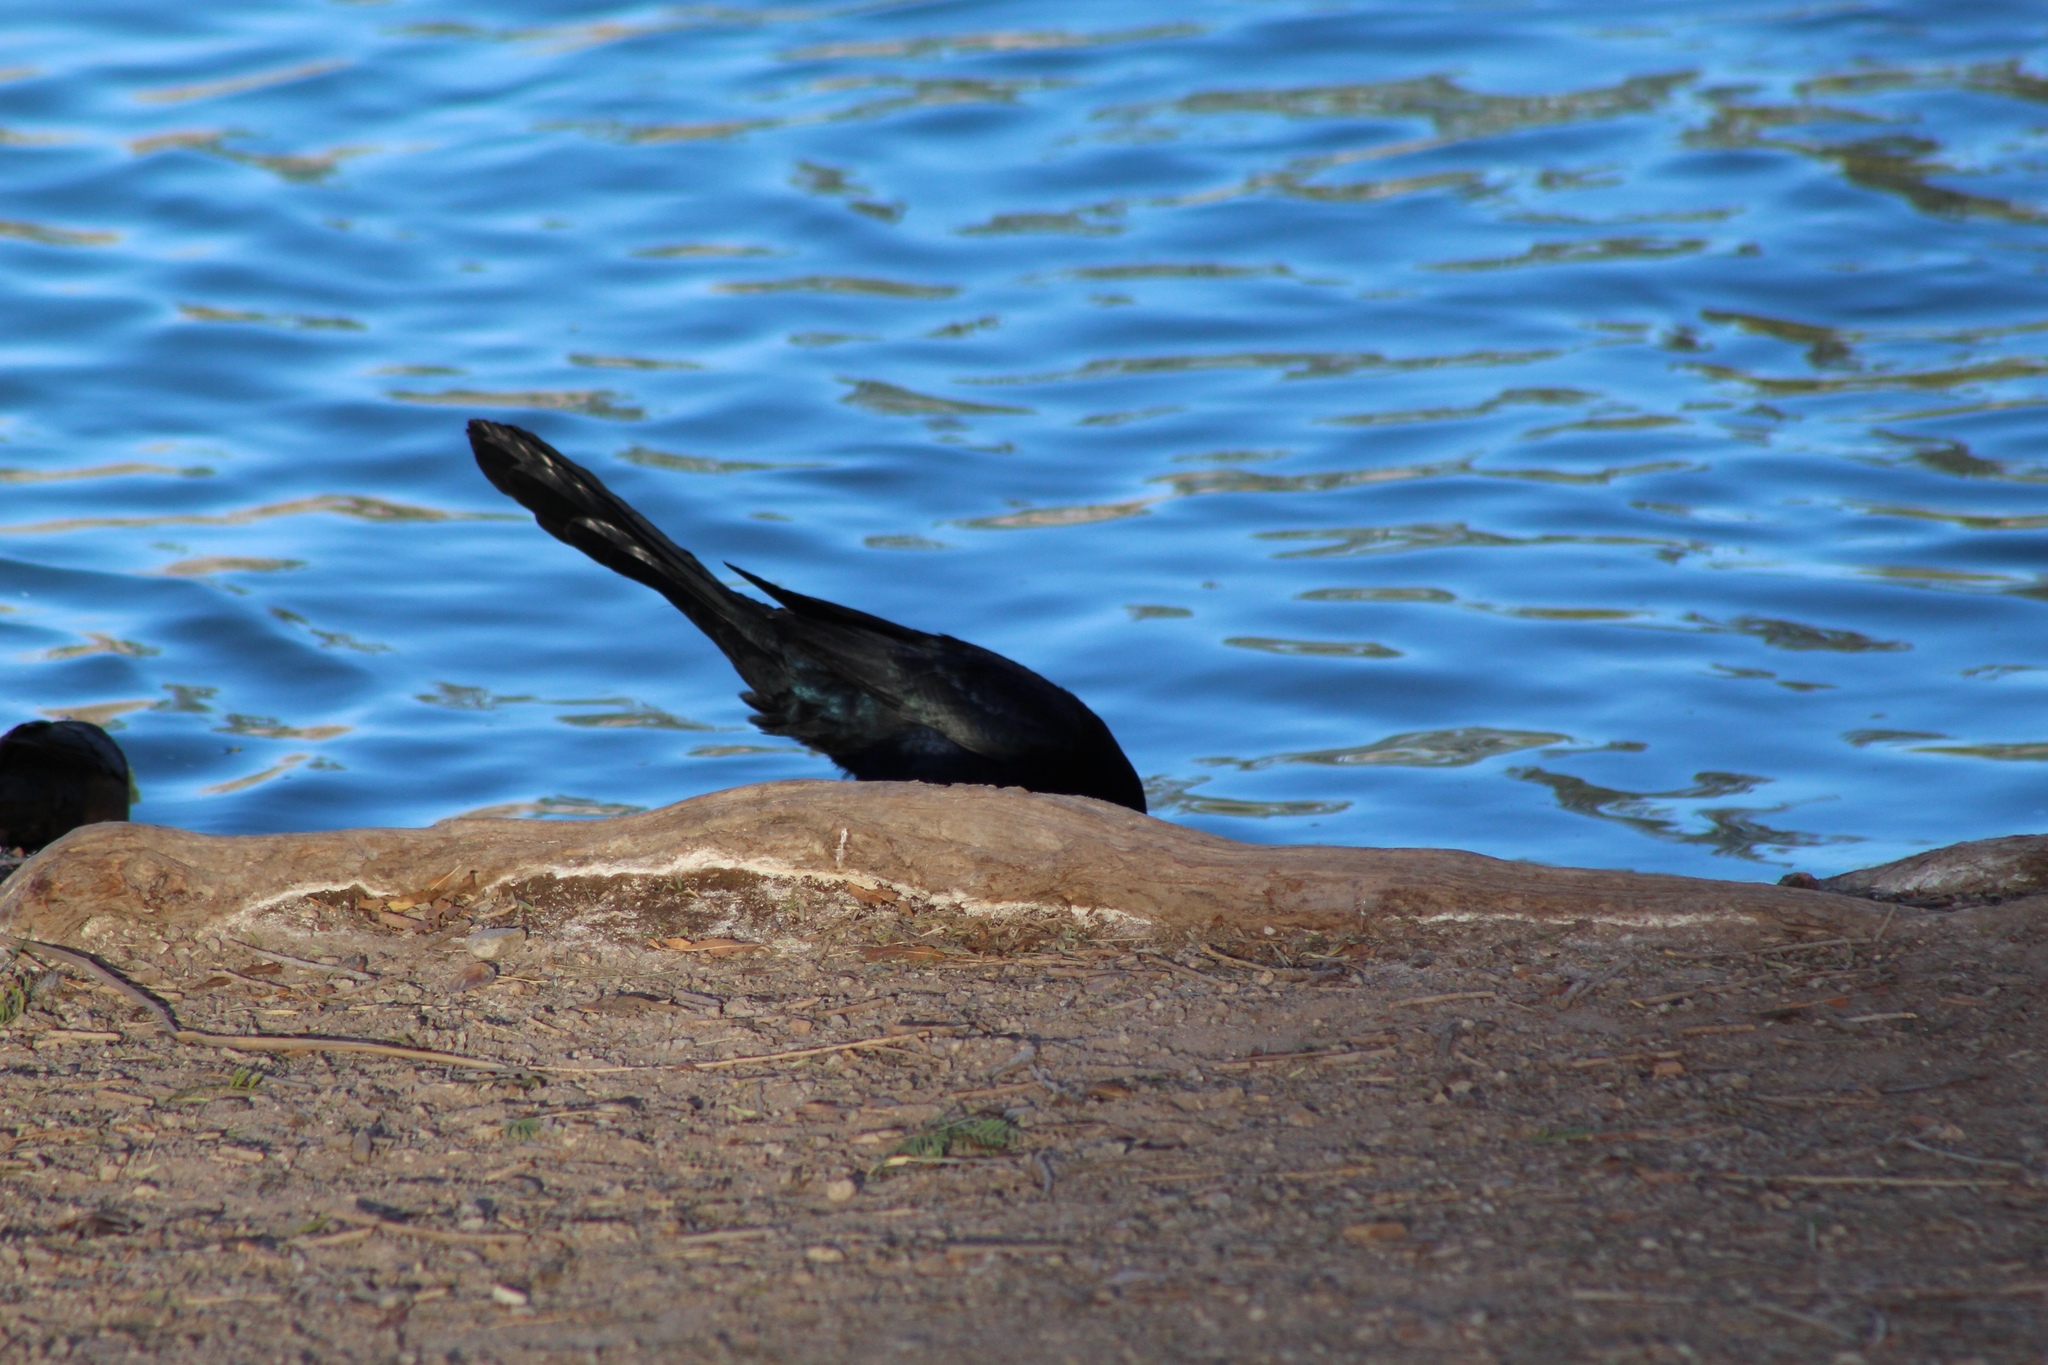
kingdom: Animalia
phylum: Chordata
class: Aves
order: Passeriformes
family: Icteridae
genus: Quiscalus
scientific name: Quiscalus mexicanus
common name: Great-tailed grackle
